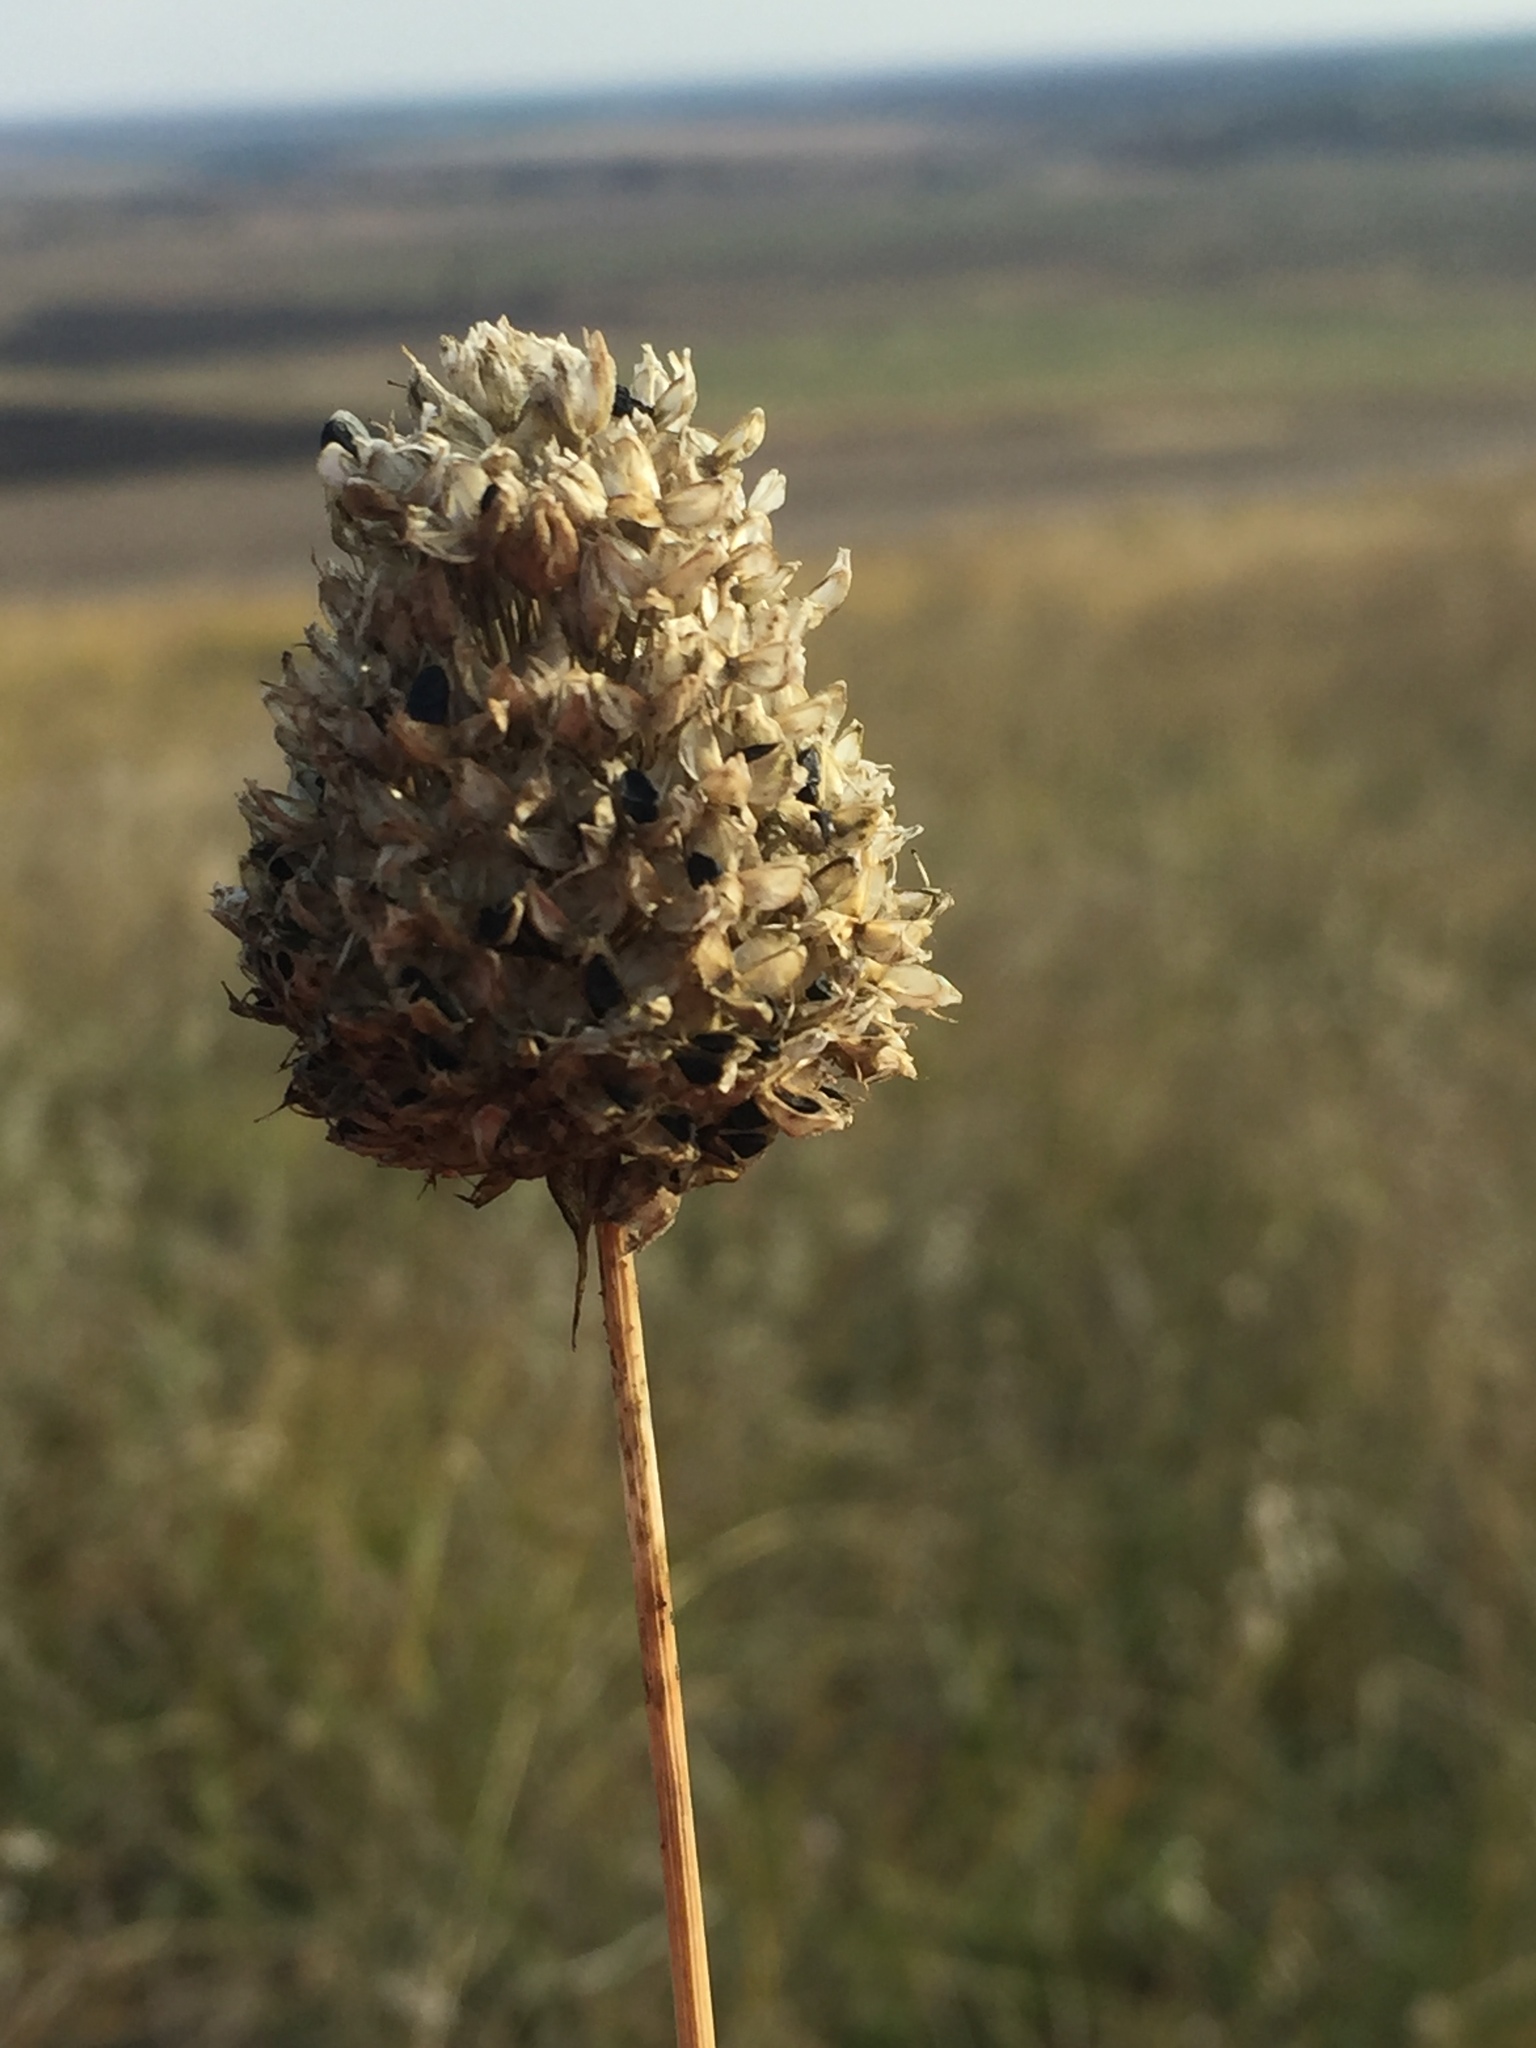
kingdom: Plantae
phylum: Tracheophyta
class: Liliopsida
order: Asparagales
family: Amaryllidaceae
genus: Allium
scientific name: Allium sphaerocephalon
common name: Round-headed leek
